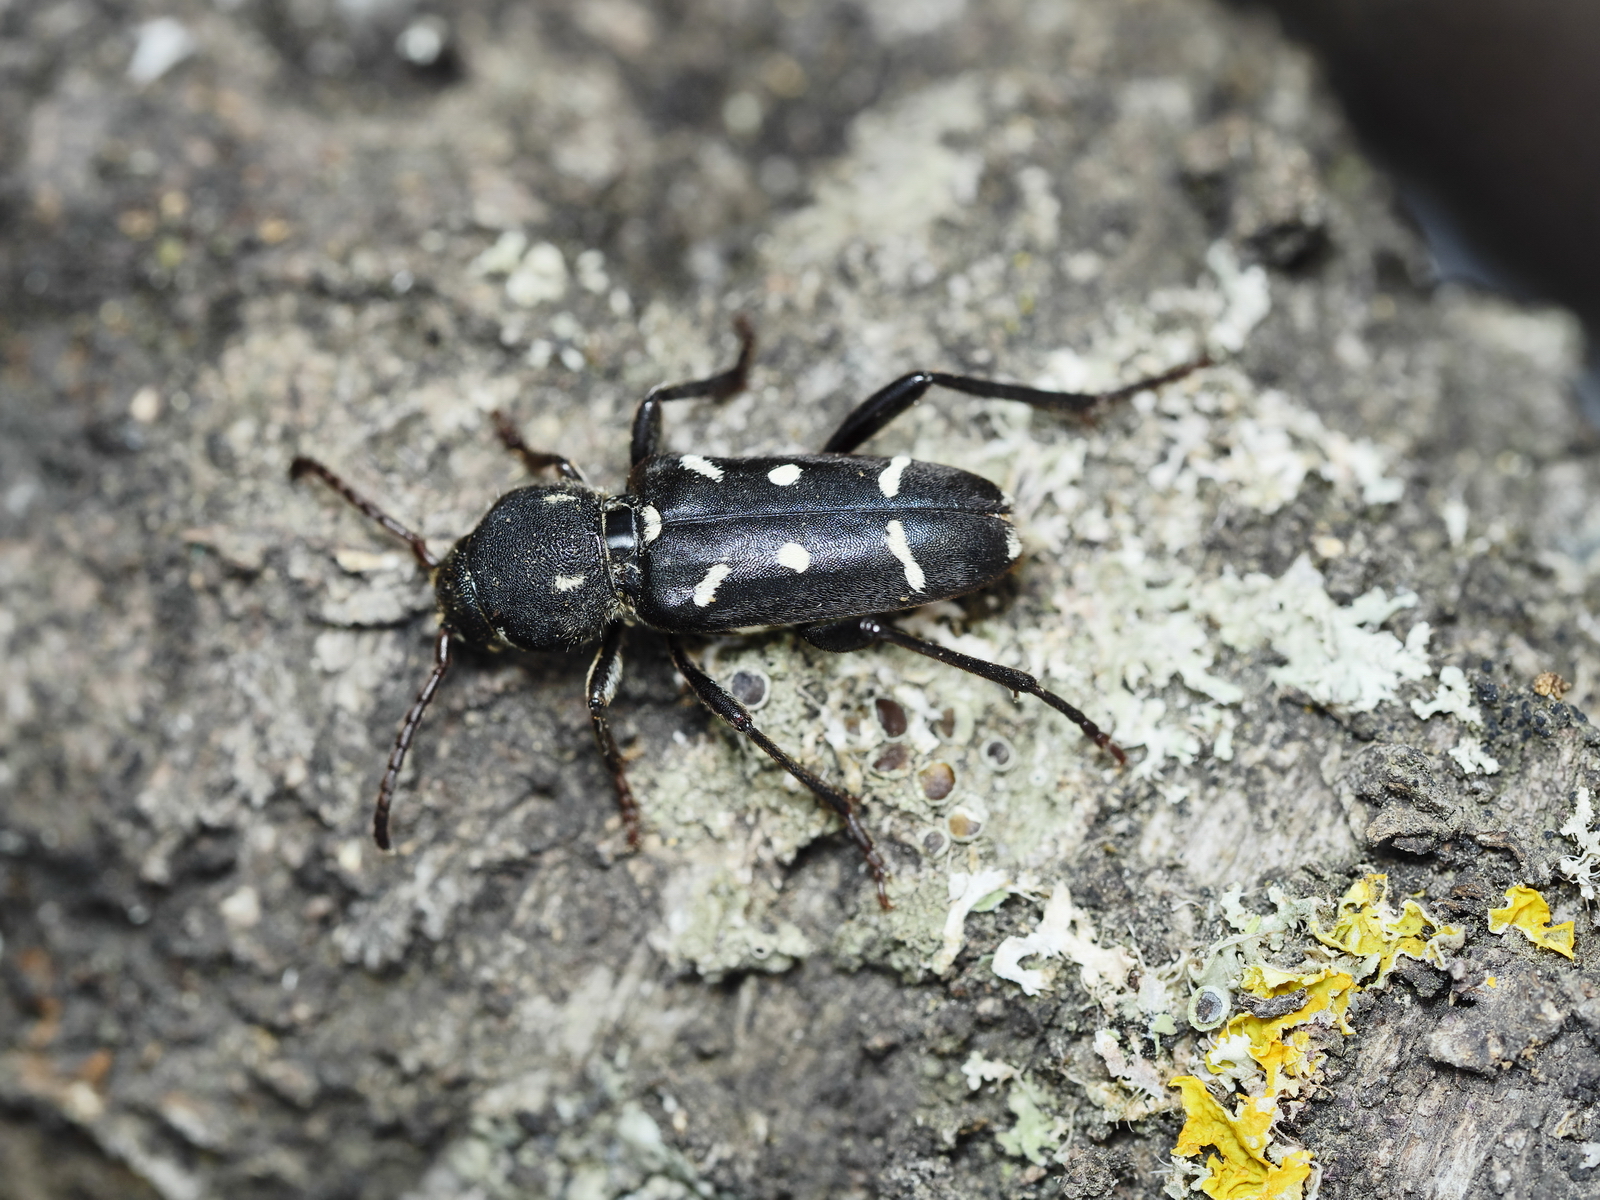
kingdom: Animalia
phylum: Arthropoda
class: Insecta
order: Coleoptera
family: Cerambycidae
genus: Turanoclytus
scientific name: Turanoclytus sieversi
